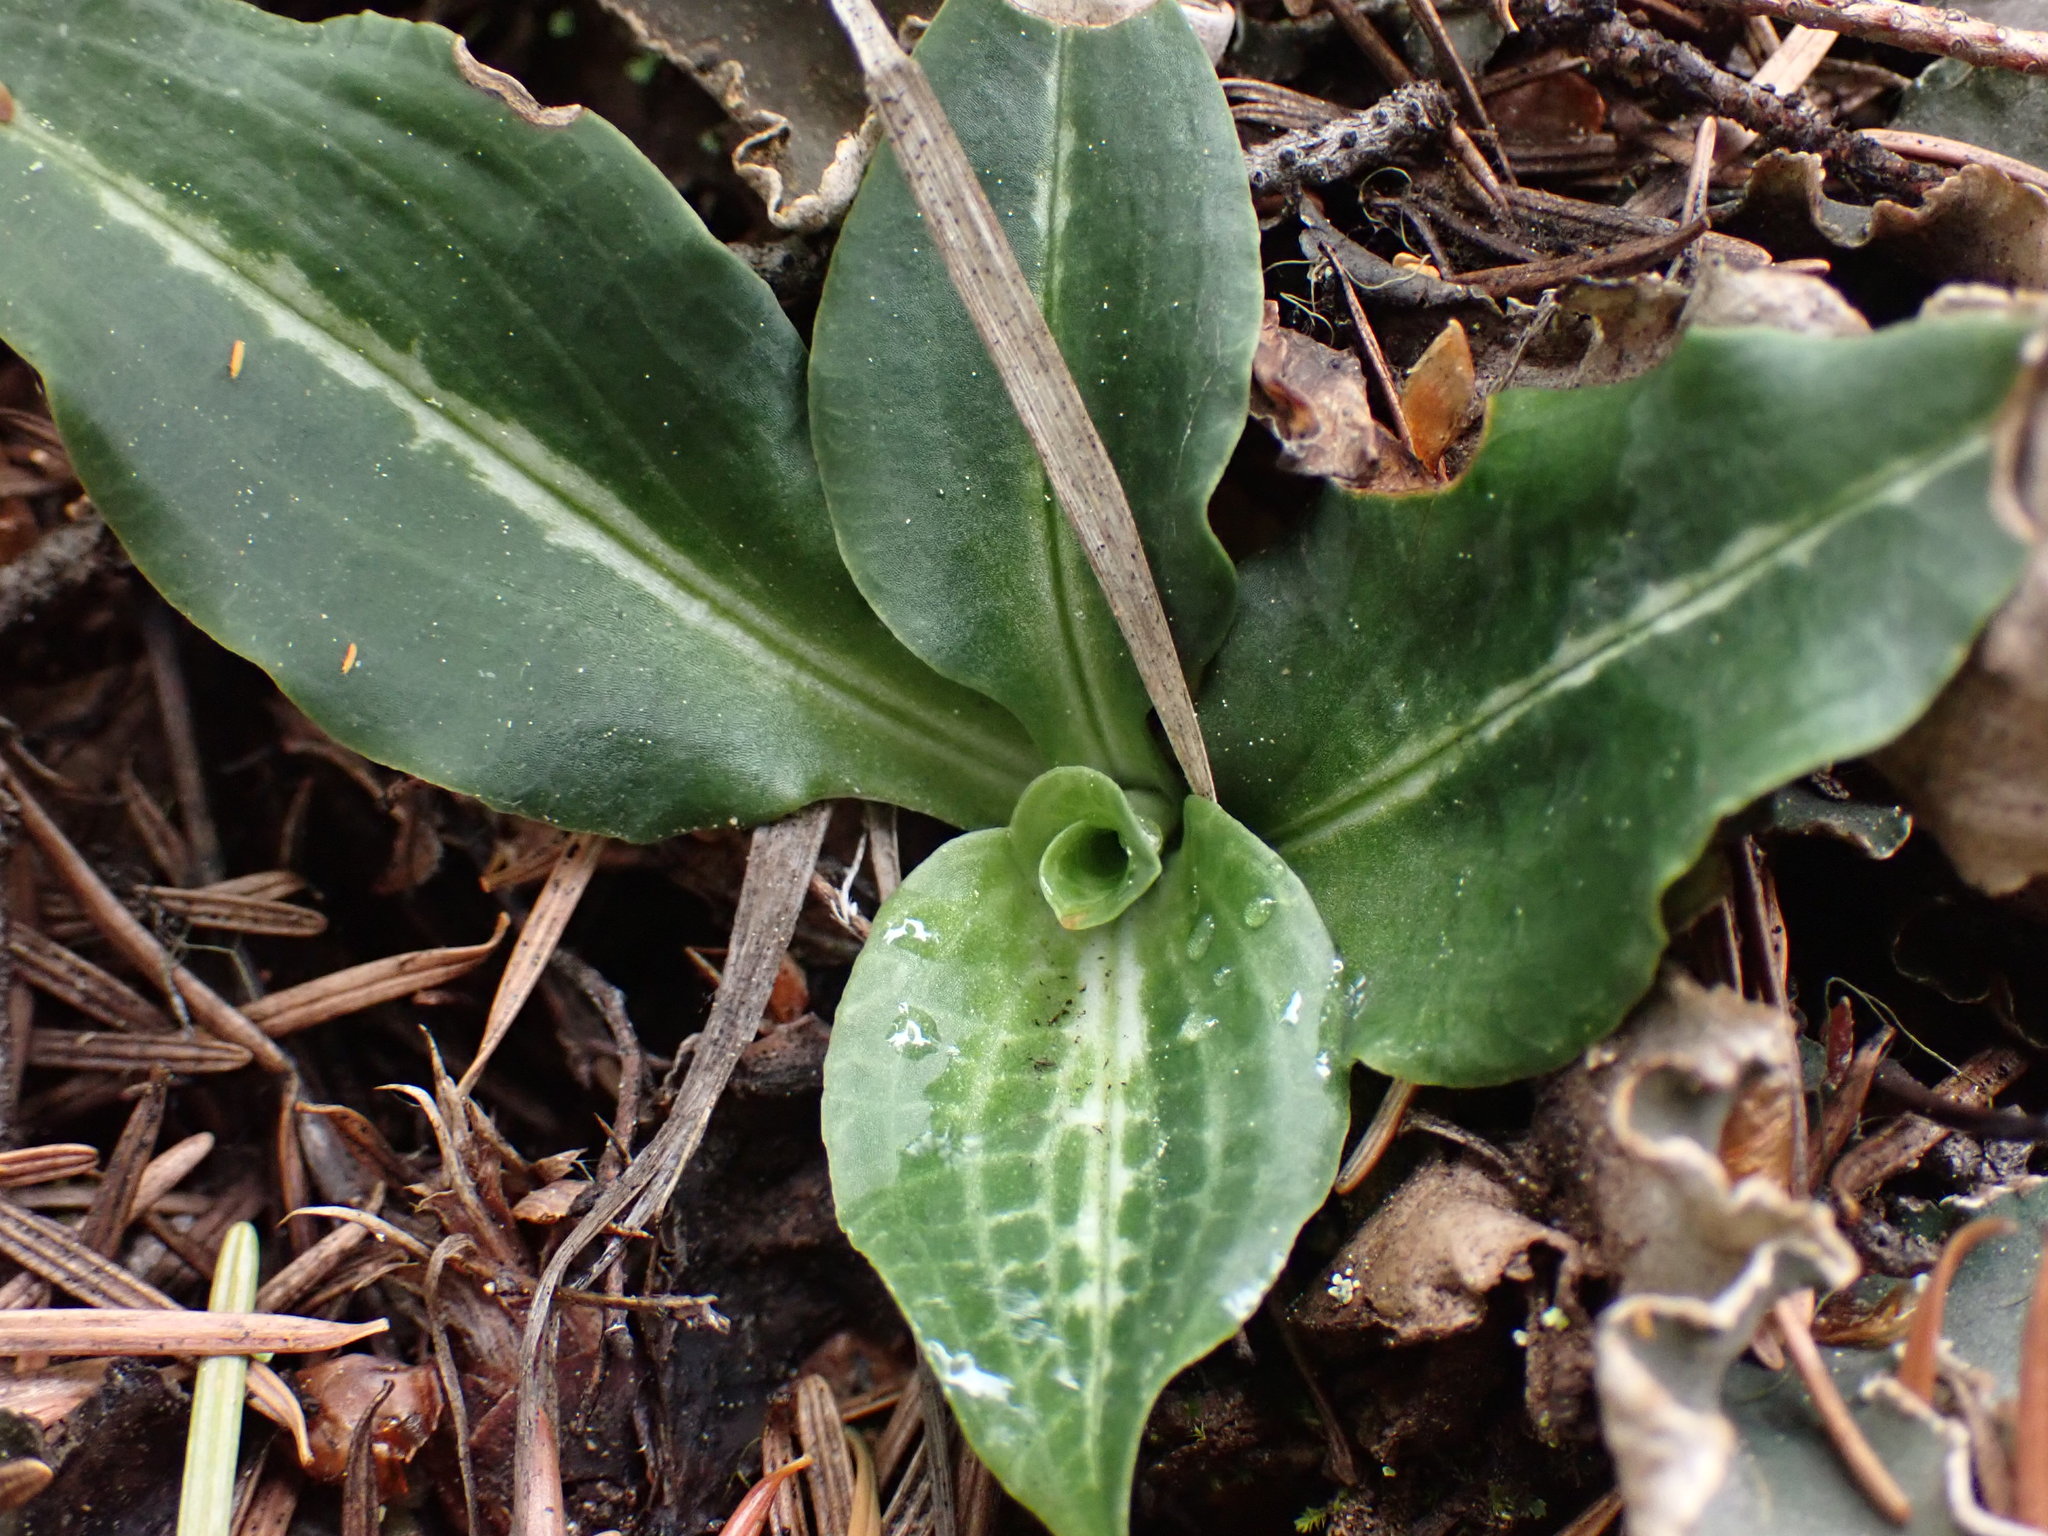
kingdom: Plantae
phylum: Tracheophyta
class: Liliopsida
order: Asparagales
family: Orchidaceae
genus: Goodyera
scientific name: Goodyera oblongifolia
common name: Giant rattlesnake-plantain
